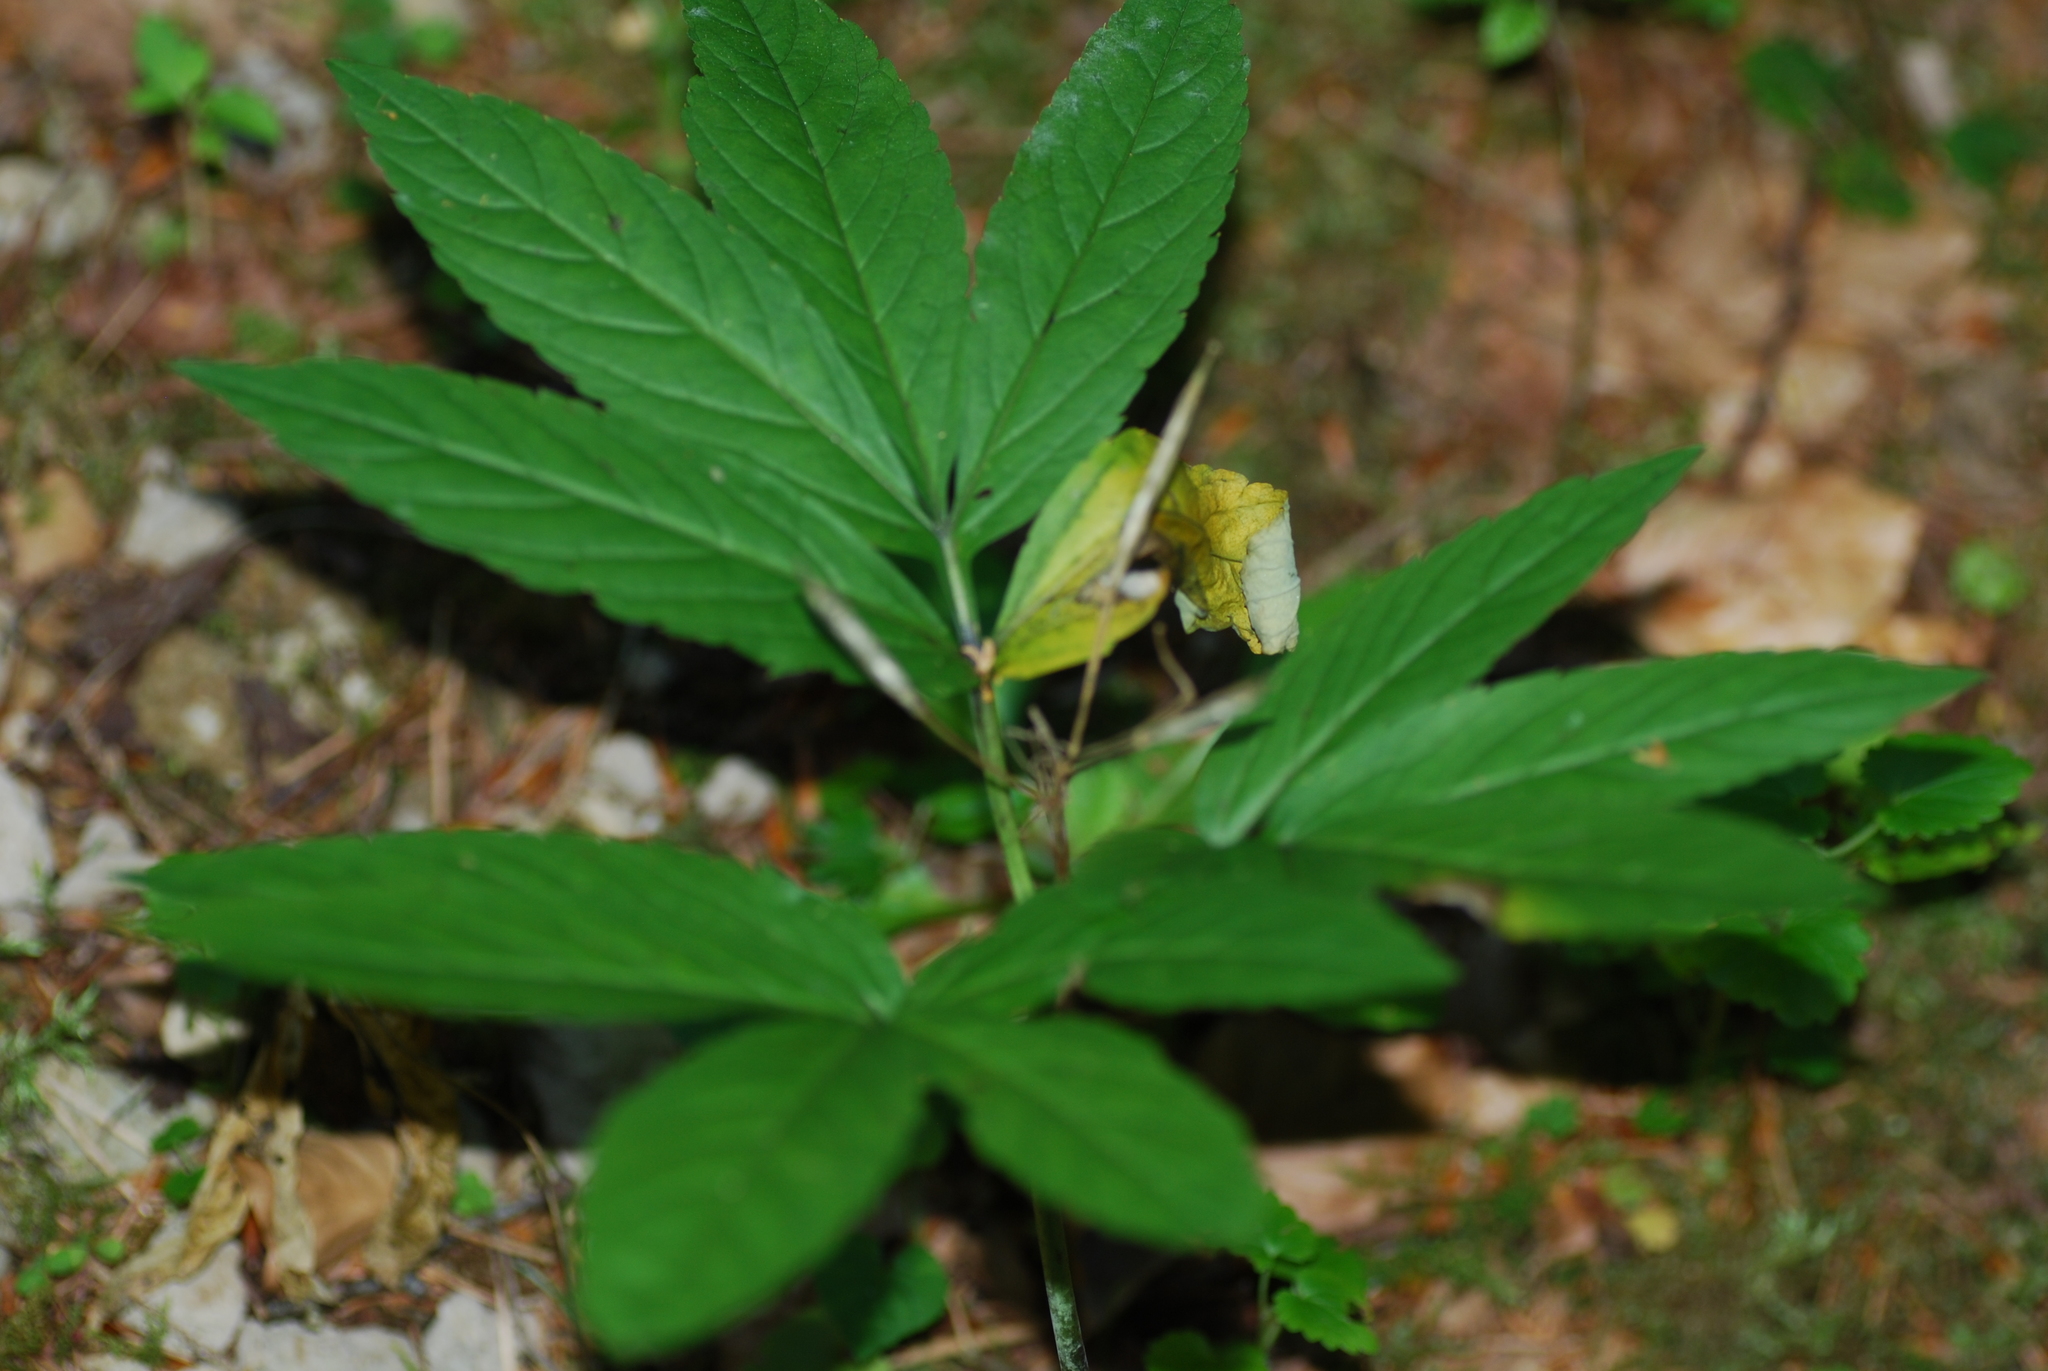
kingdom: Plantae
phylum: Tracheophyta
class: Magnoliopsida
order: Brassicales
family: Brassicaceae
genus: Cardamine
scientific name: Cardamine heptaphylla
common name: Pinnate coralroot
